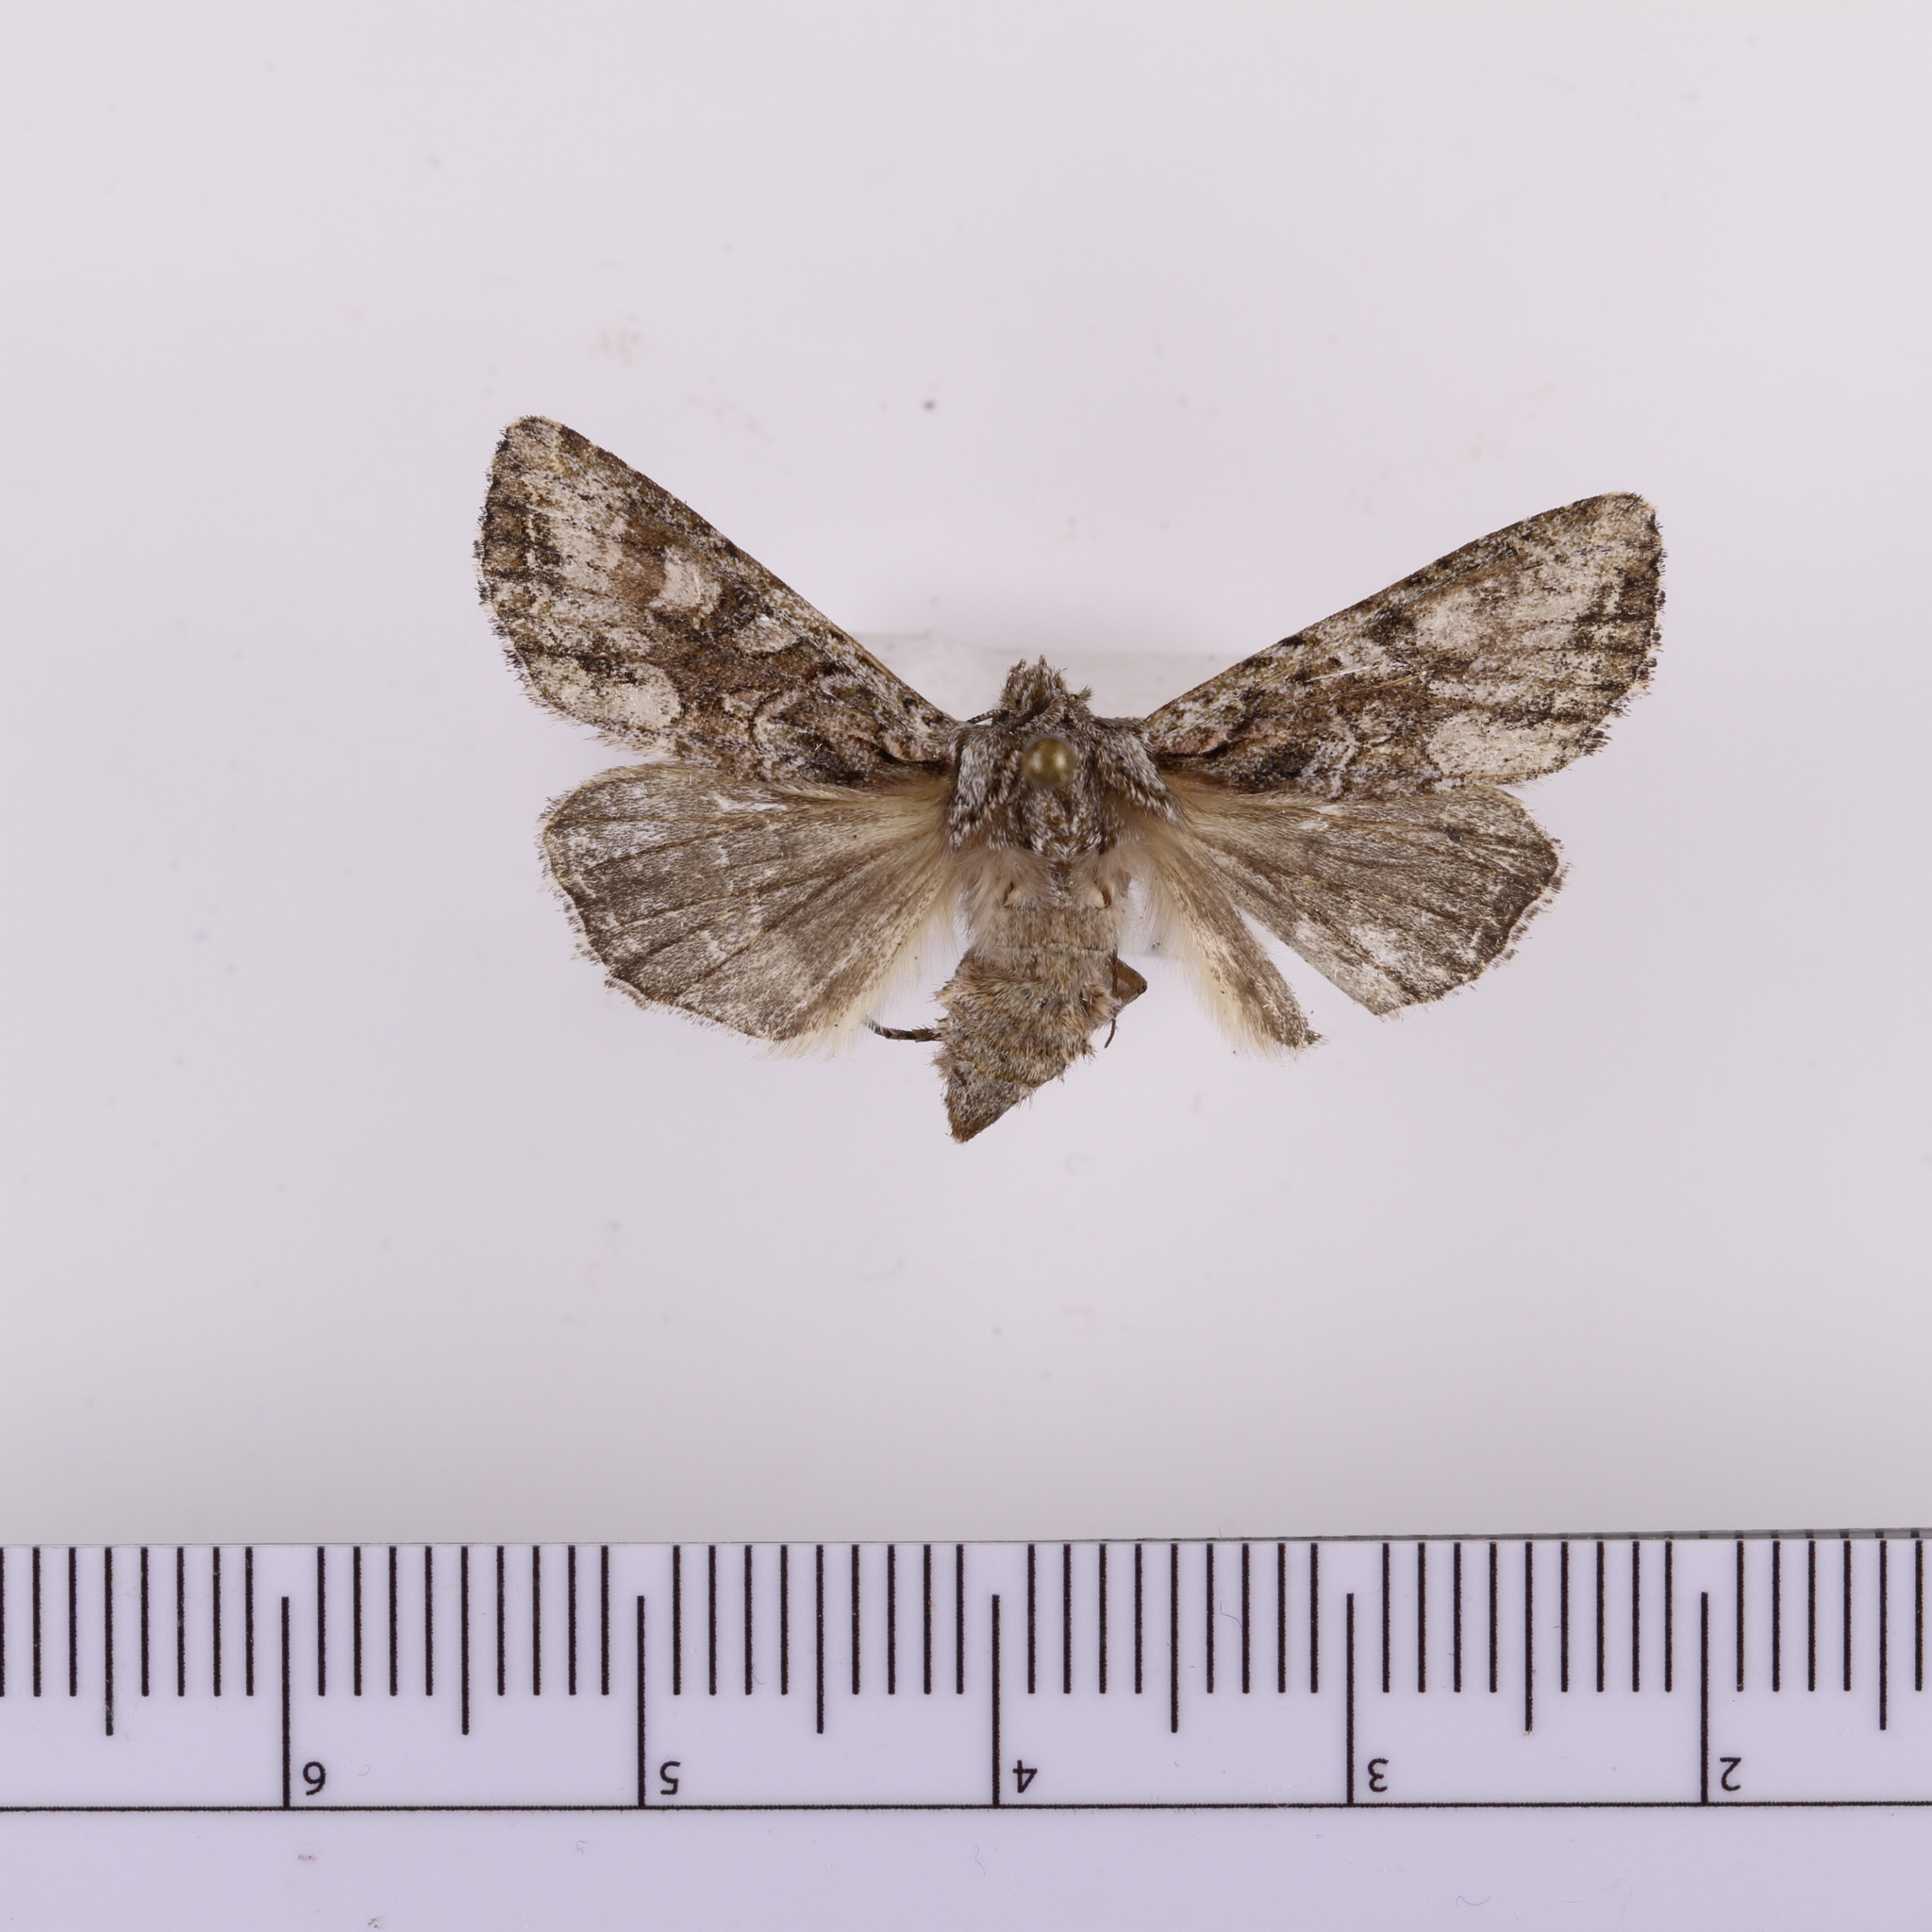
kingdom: Animalia
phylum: Arthropoda
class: Insecta
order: Lepidoptera
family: Noctuidae
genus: Ichneutica
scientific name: Ichneutica mutans
